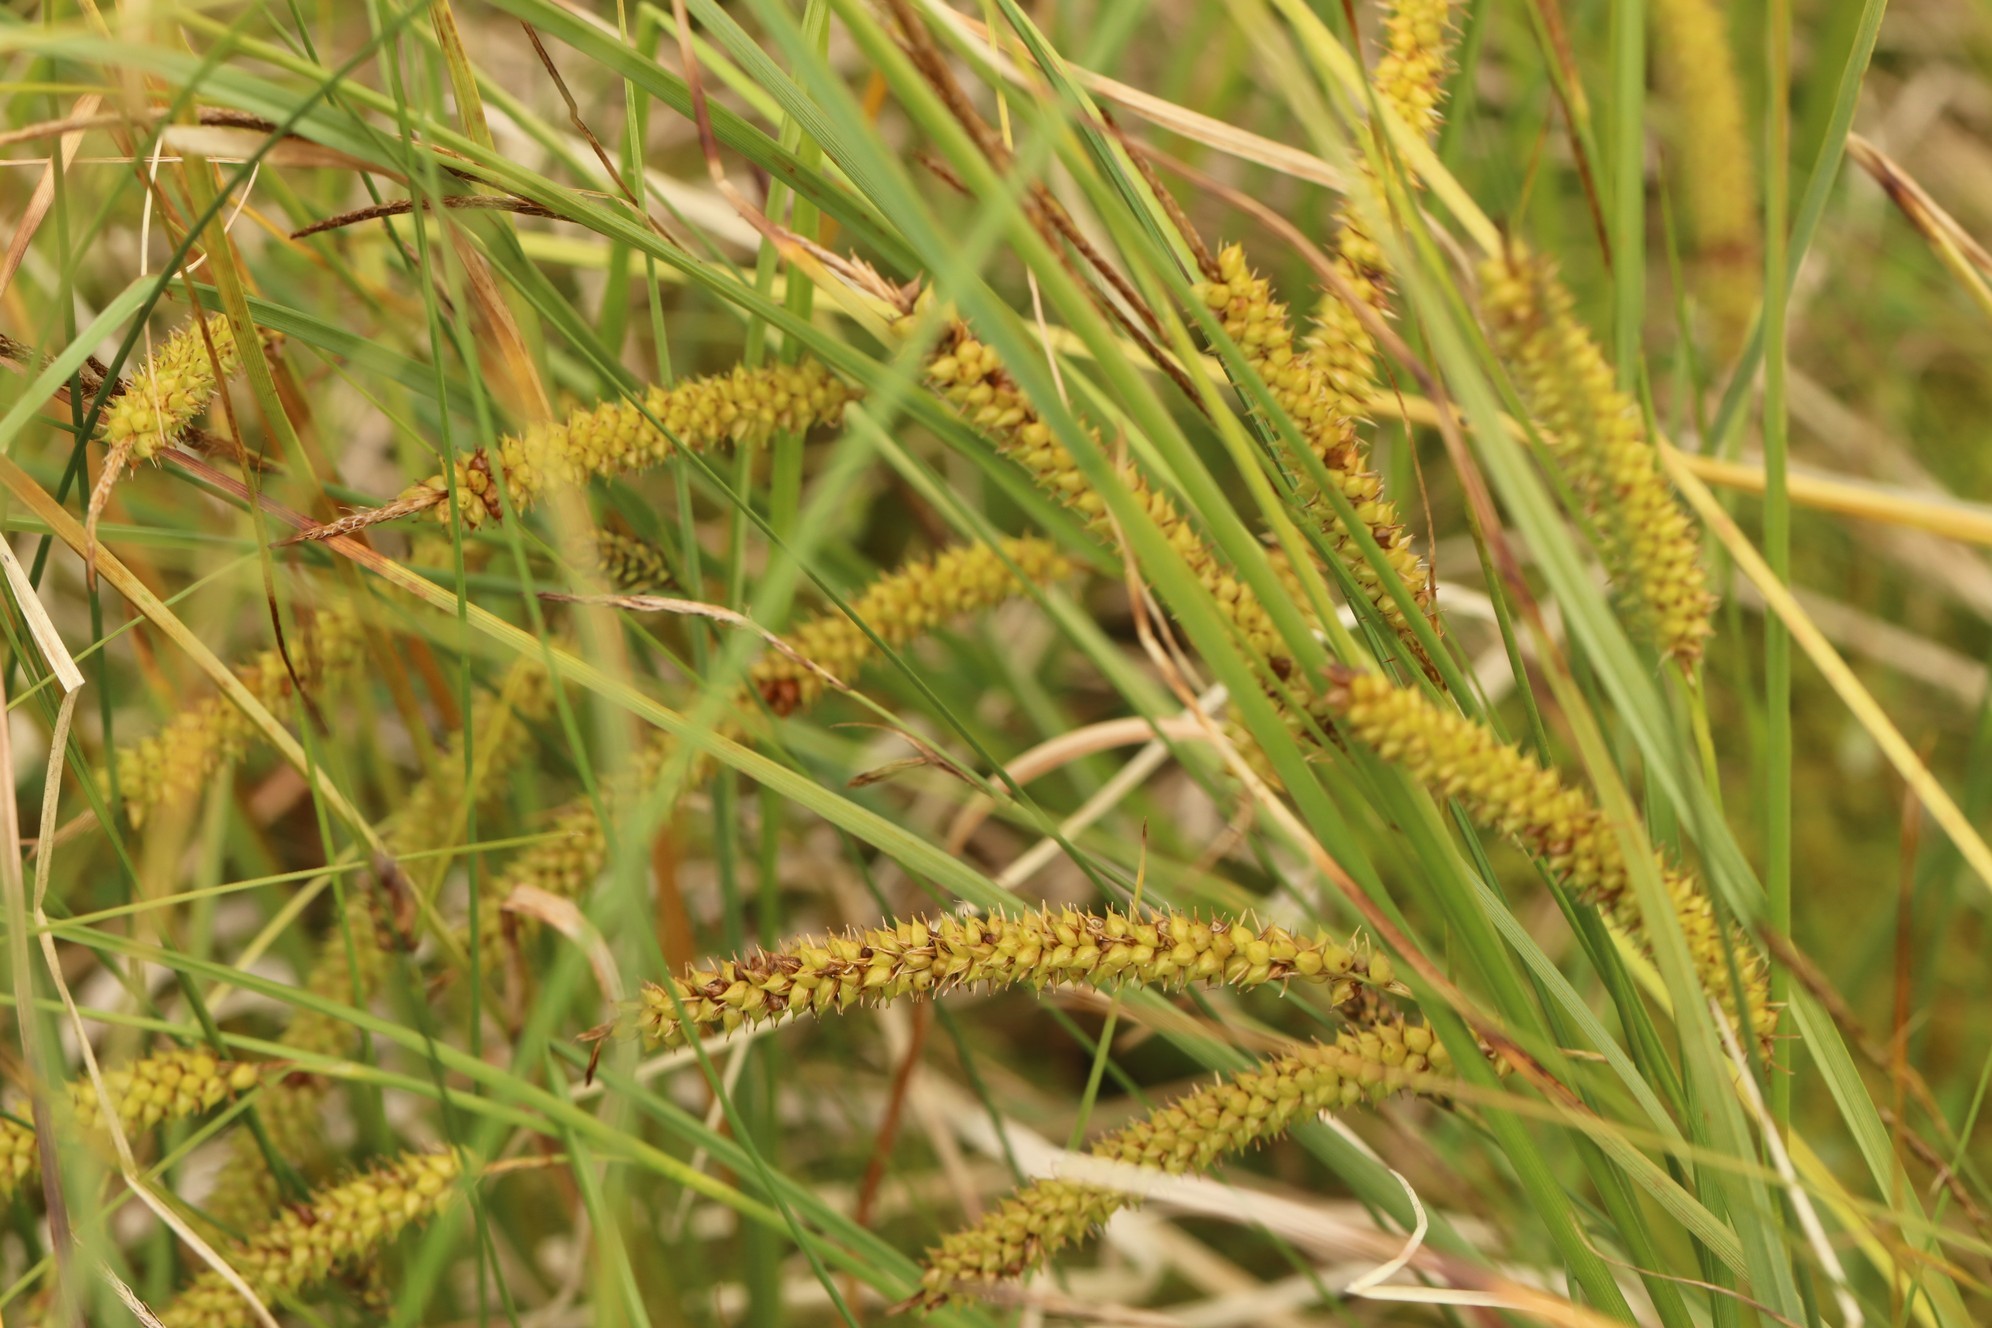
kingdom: Plantae
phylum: Tracheophyta
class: Liliopsida
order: Poales
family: Cyperaceae
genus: Carex
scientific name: Carex vesicaria
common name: Bladder-sedge
